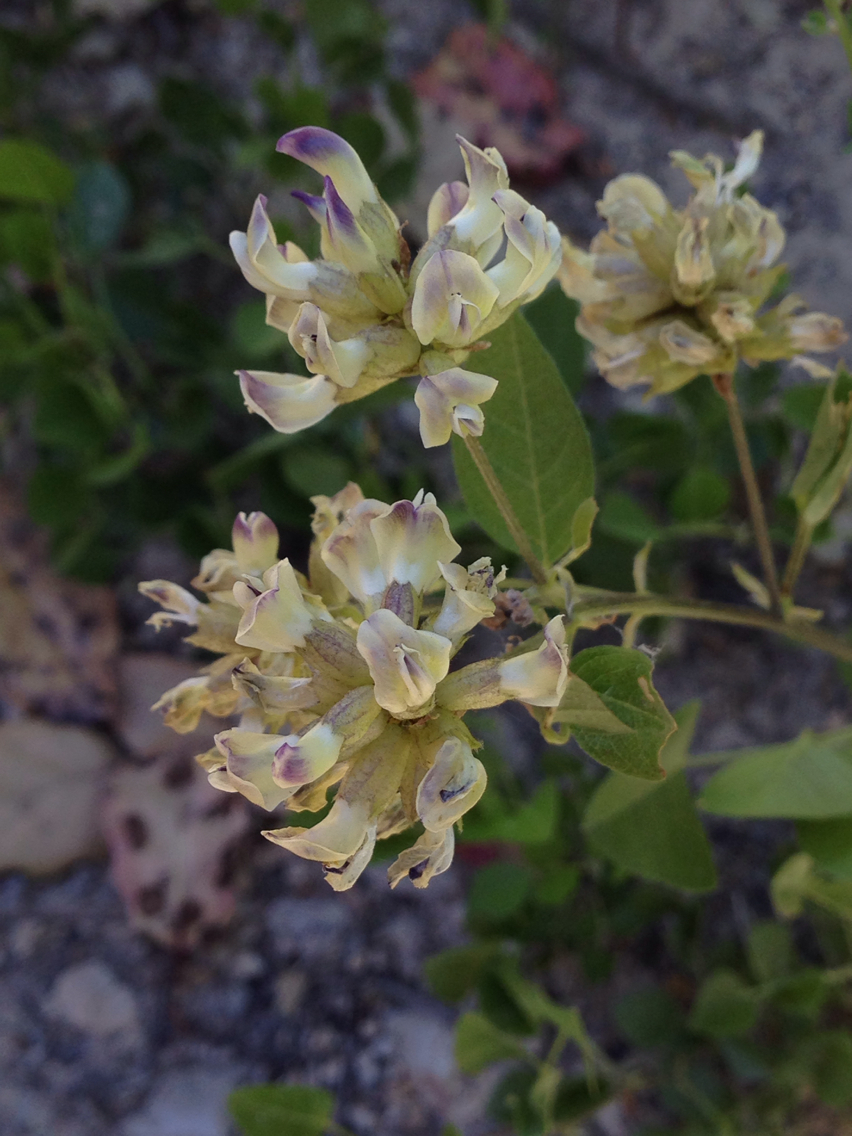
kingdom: Plantae
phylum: Tracheophyta
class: Magnoliopsida
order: Fabales
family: Fabaceae
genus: Rupertia
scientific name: Rupertia physodes
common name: California-tea
